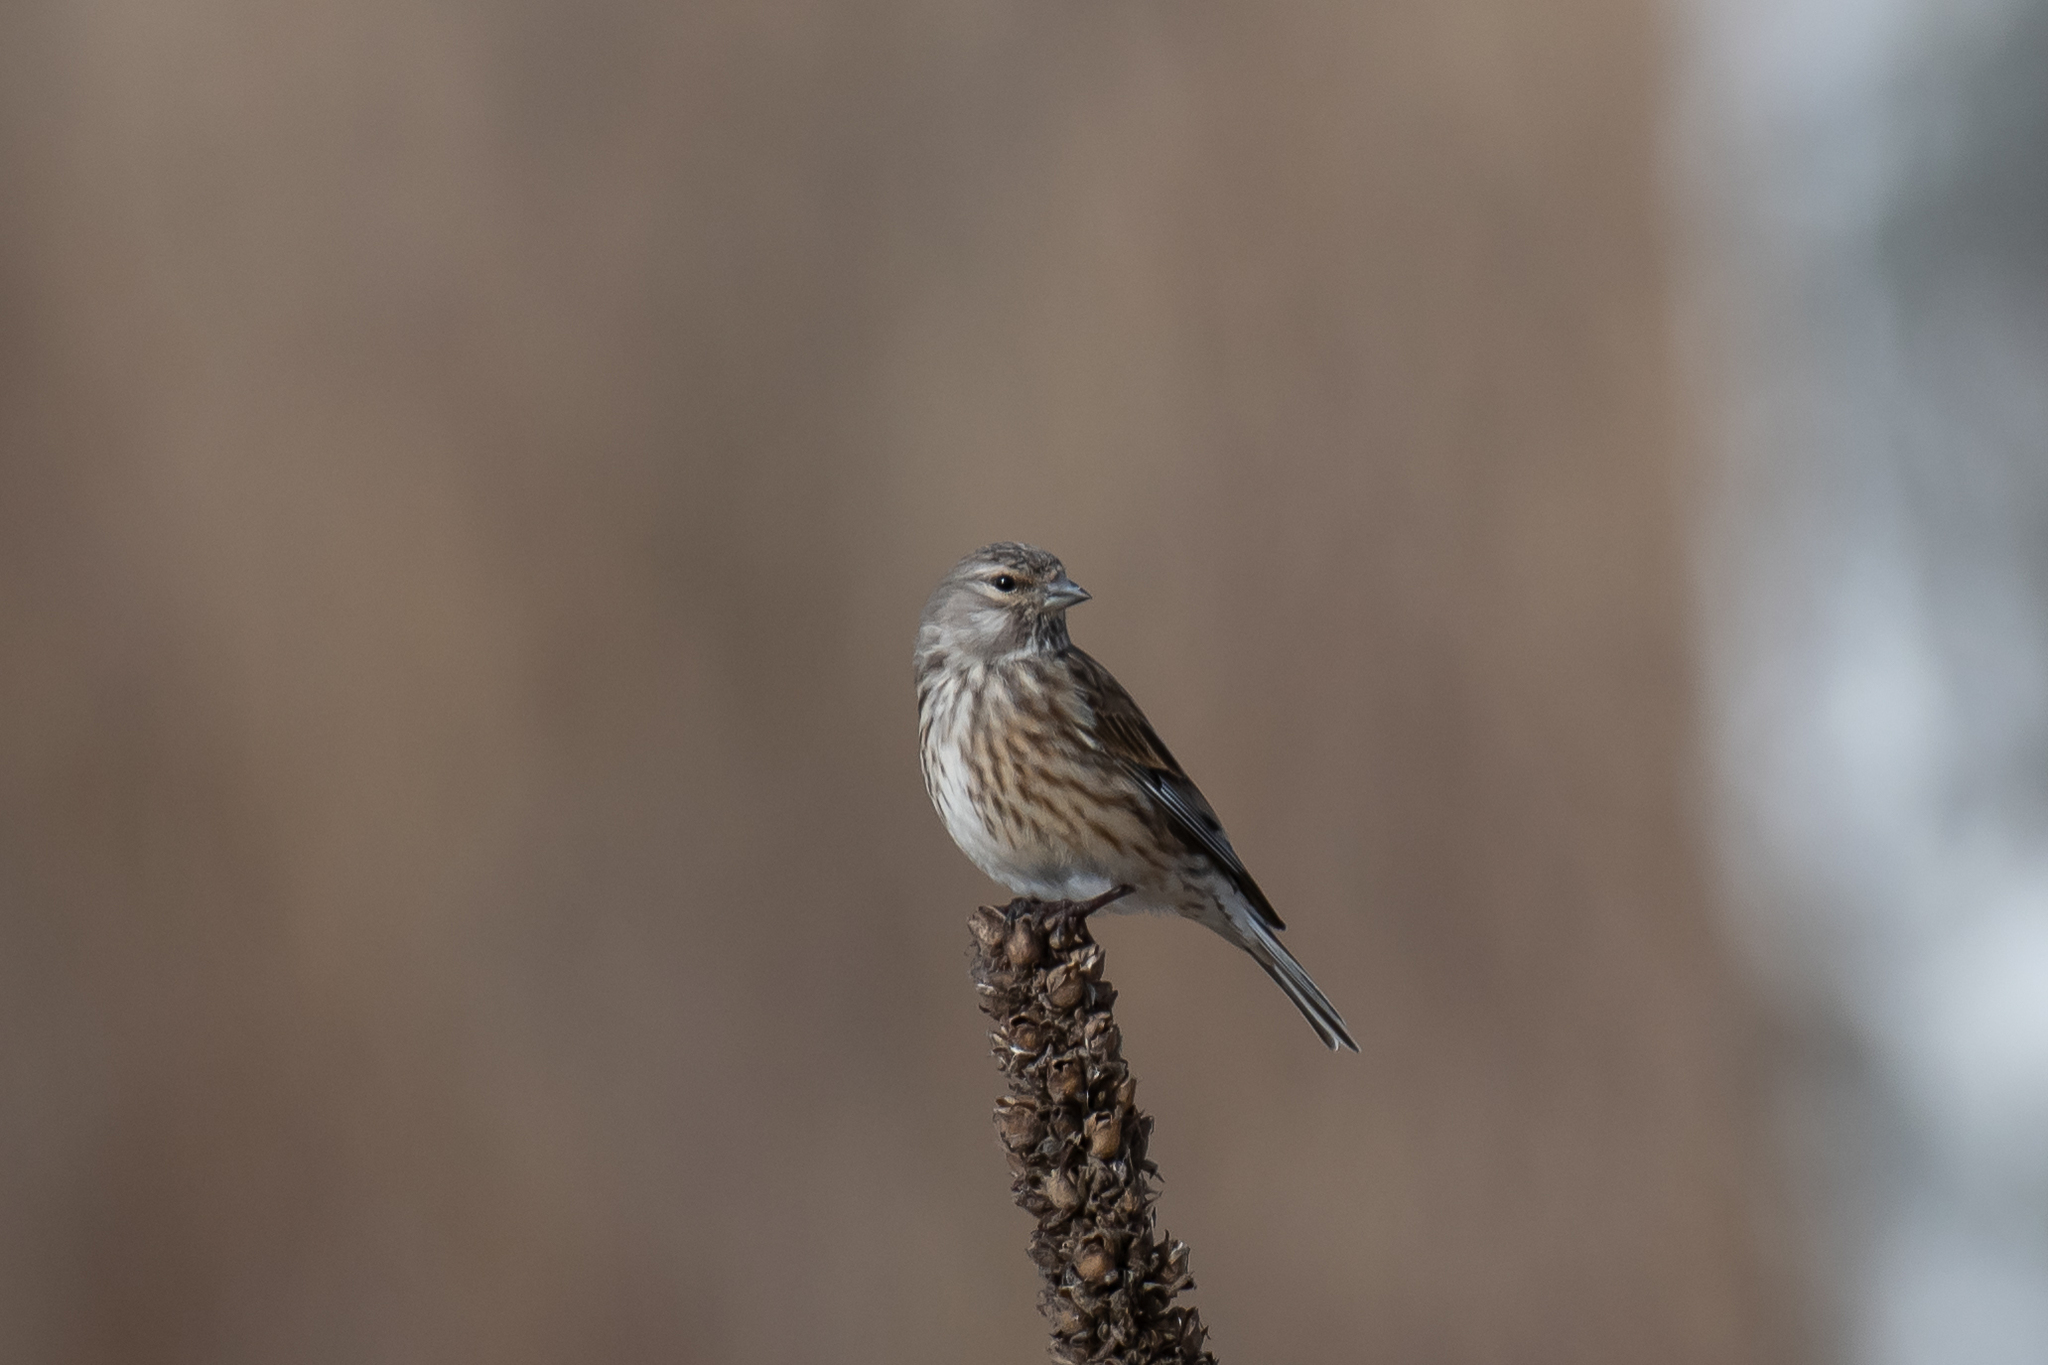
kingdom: Animalia
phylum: Chordata
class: Aves
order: Passeriformes
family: Fringillidae
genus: Linaria
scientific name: Linaria cannabina
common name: Common linnet
